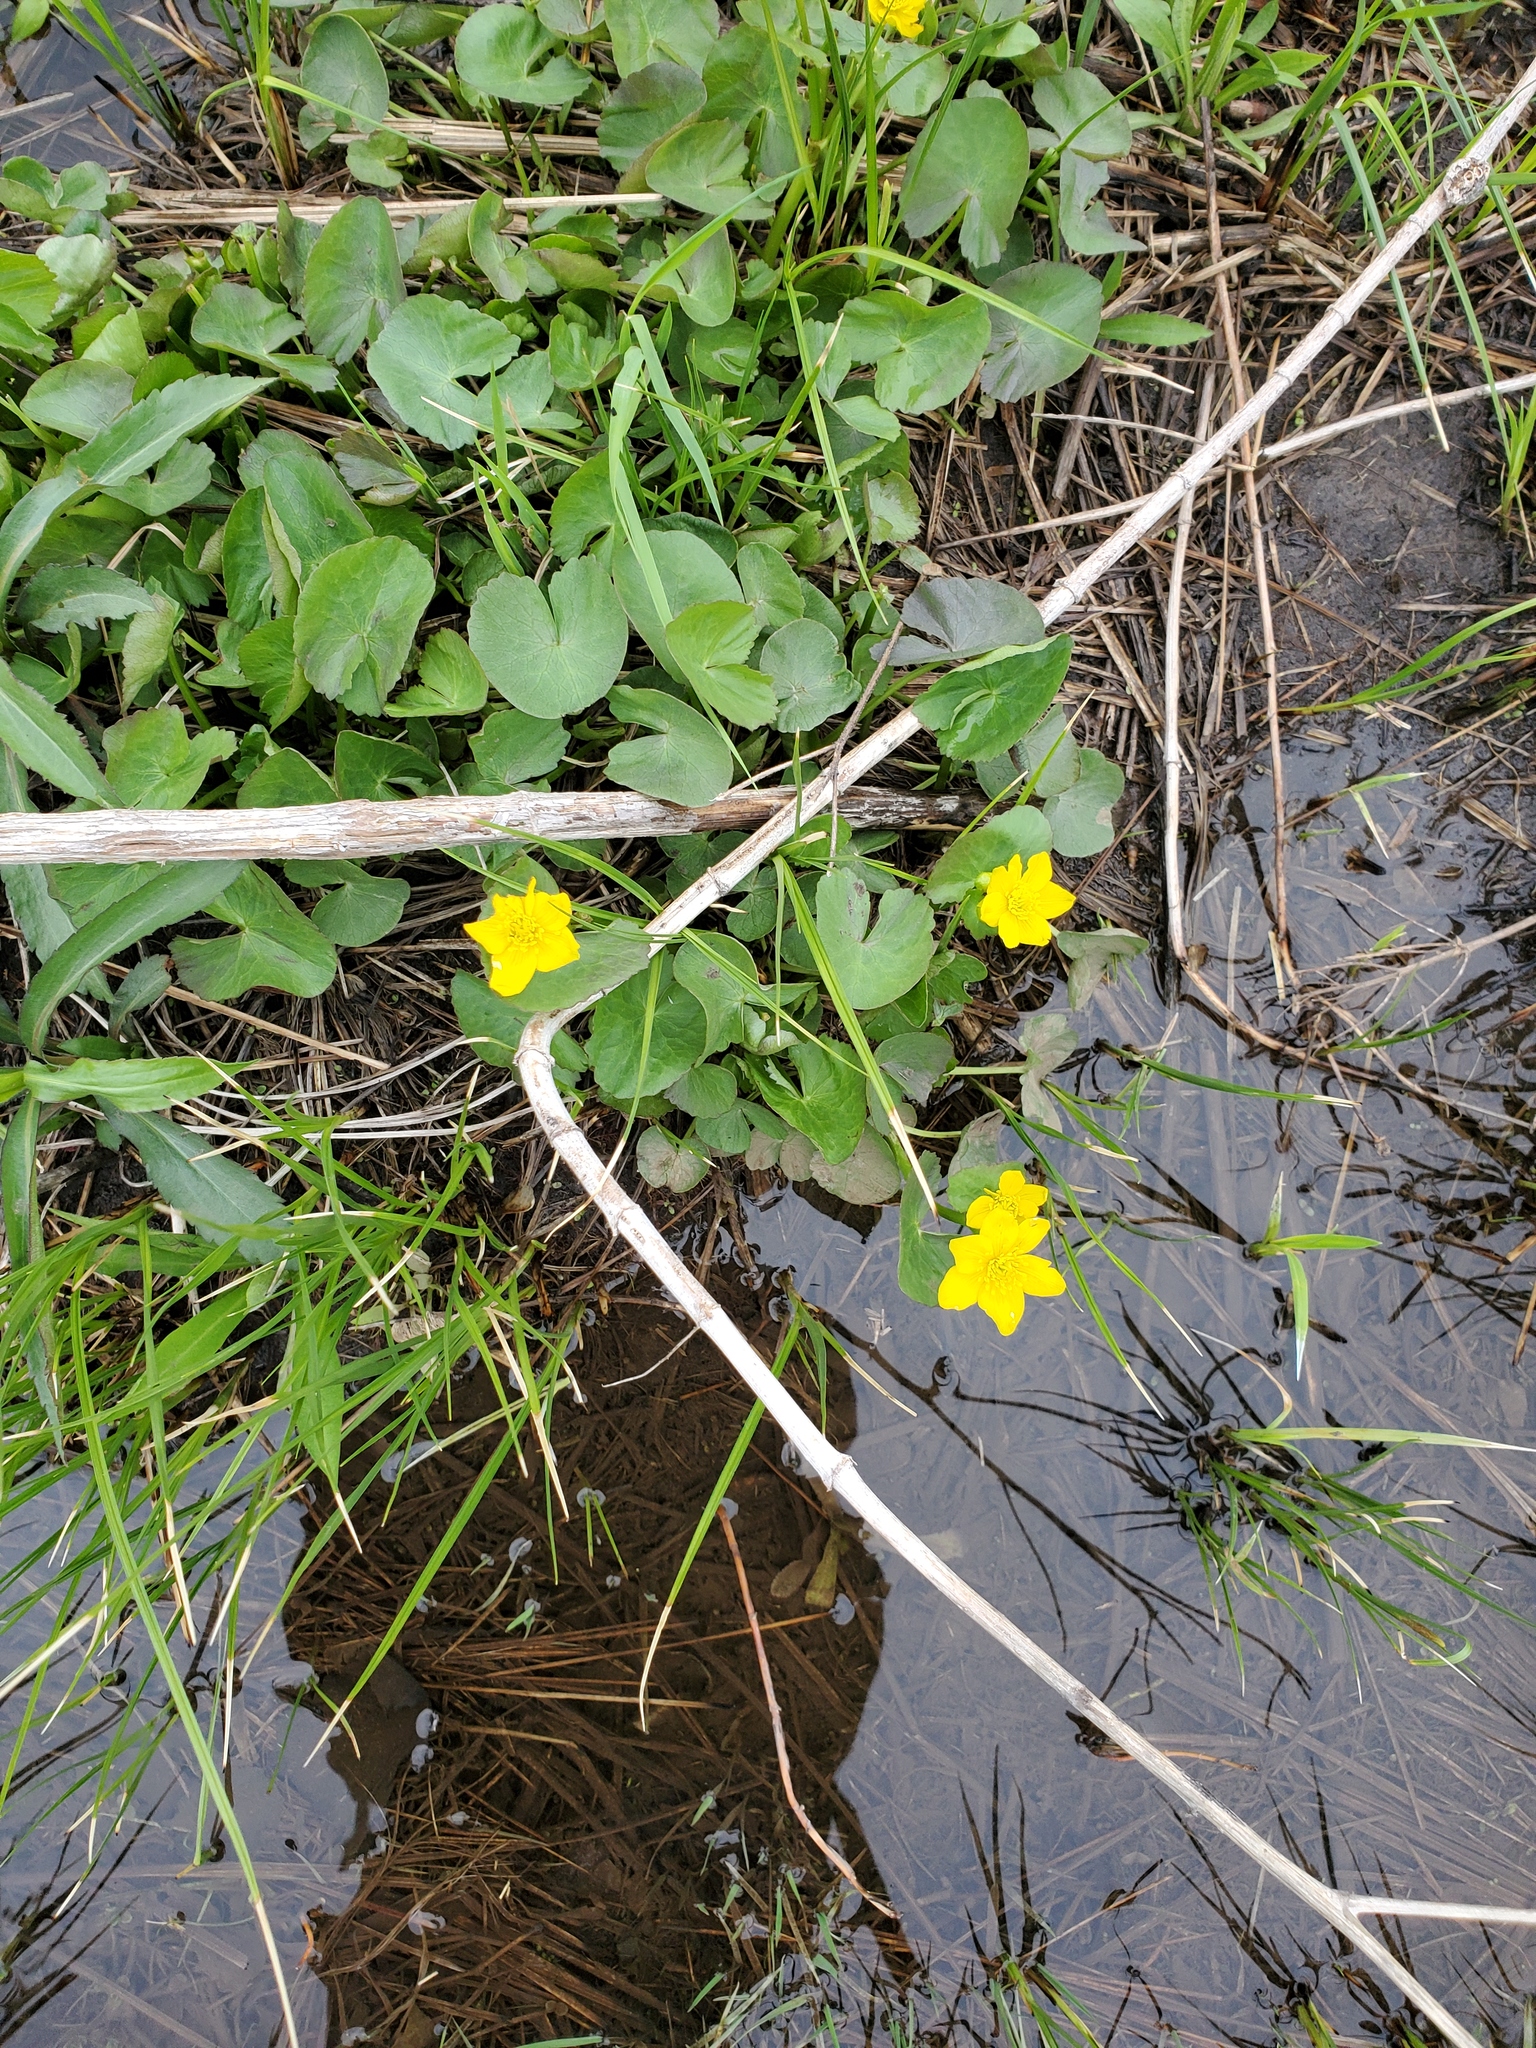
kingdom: Plantae
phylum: Tracheophyta
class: Magnoliopsida
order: Ranunculales
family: Ranunculaceae
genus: Caltha
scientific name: Caltha palustris
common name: Marsh marigold
